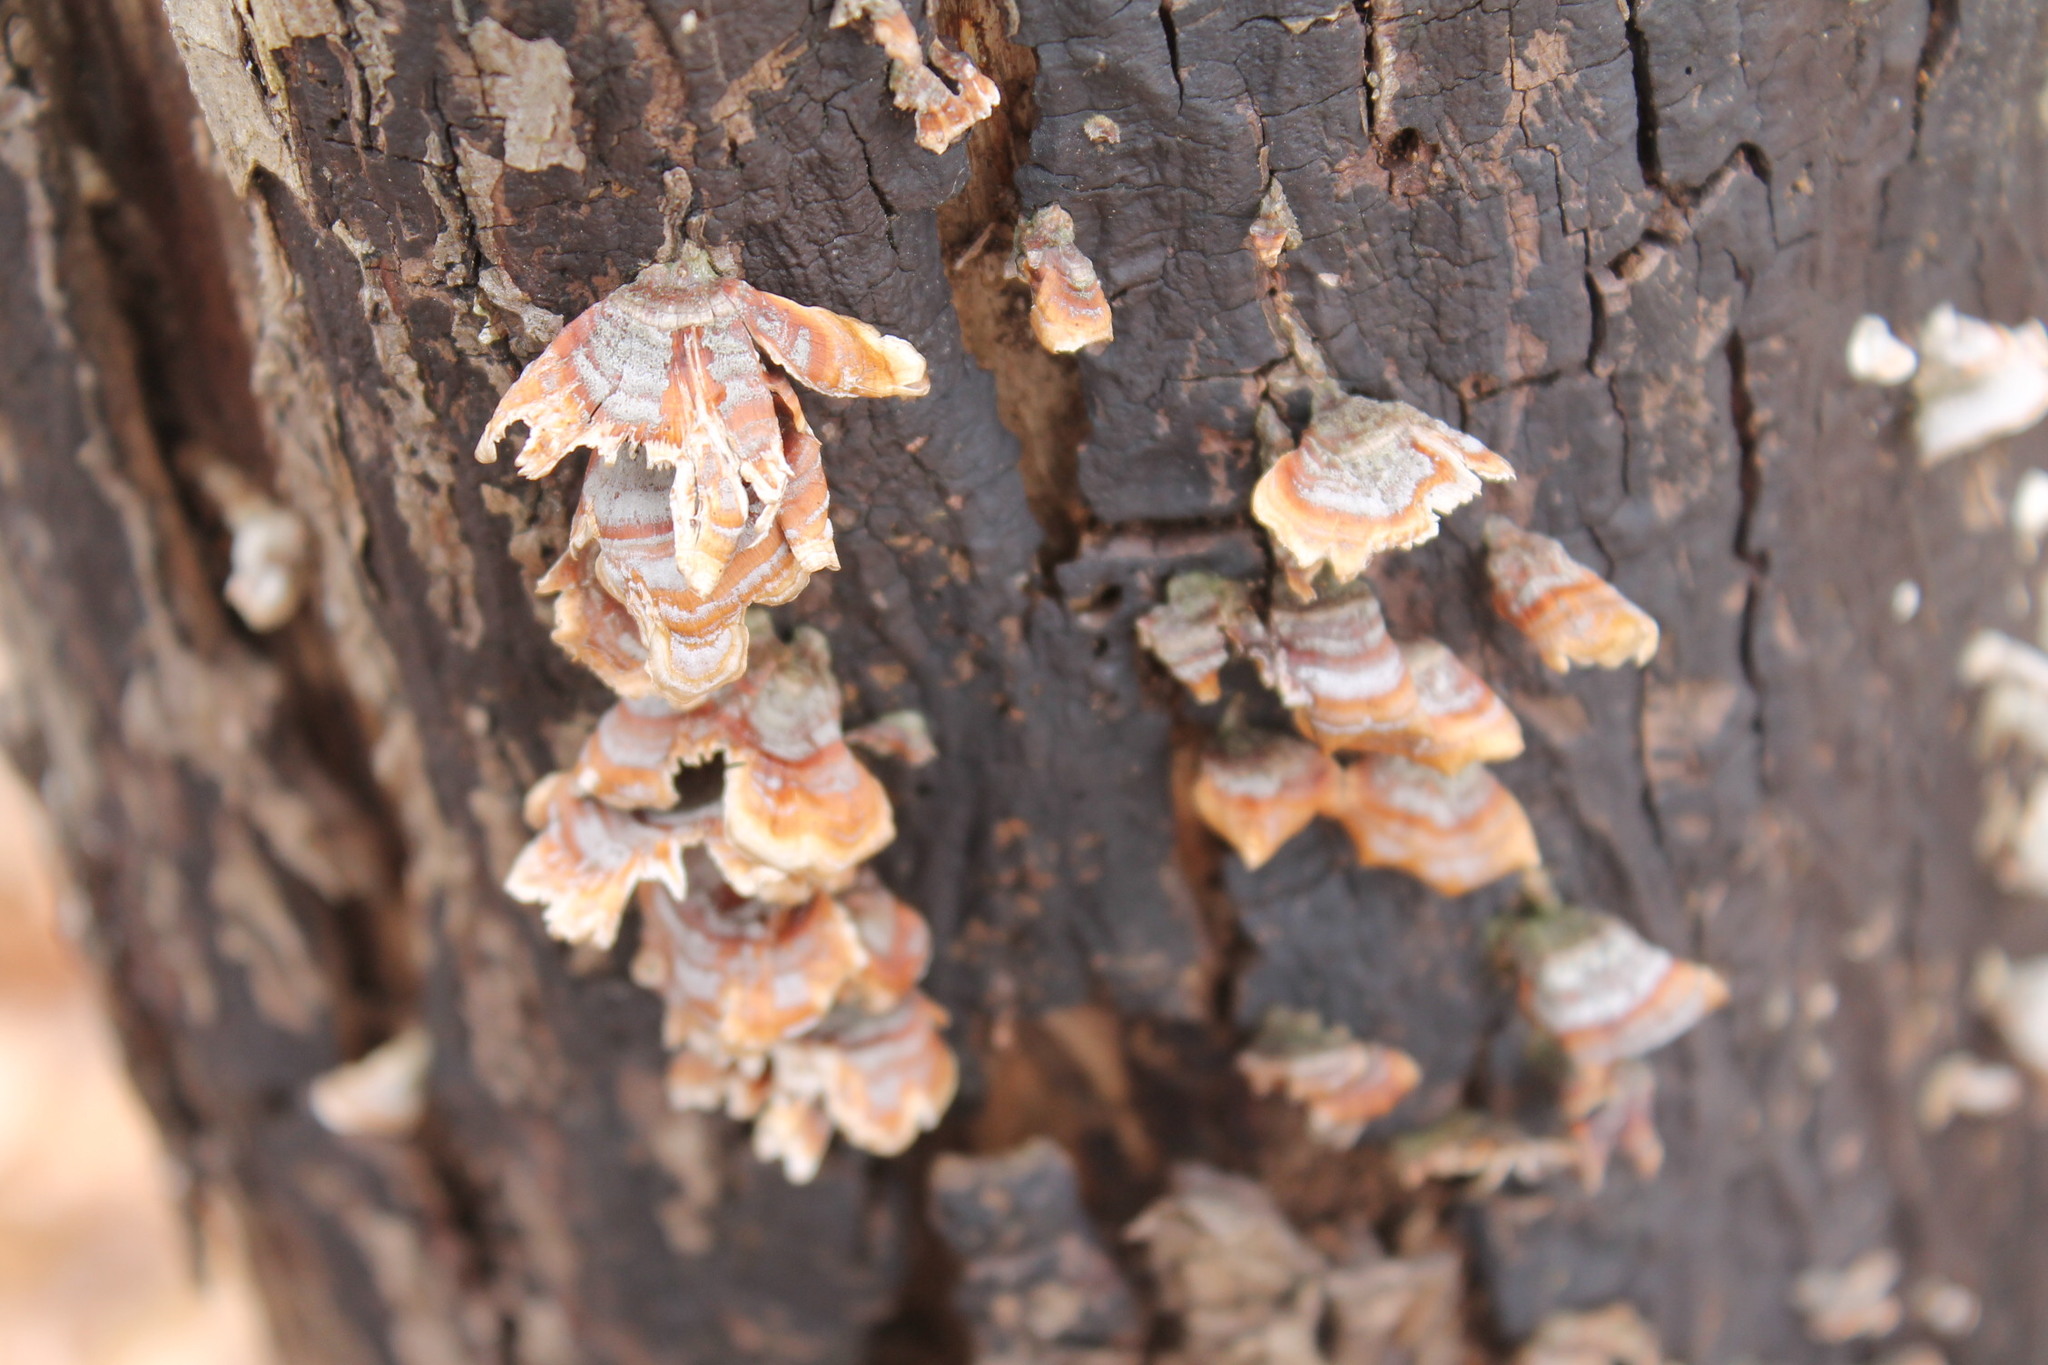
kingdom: Fungi
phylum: Basidiomycota
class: Agaricomycetes
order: Russulales
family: Stereaceae
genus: Stereum
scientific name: Stereum lobatum
